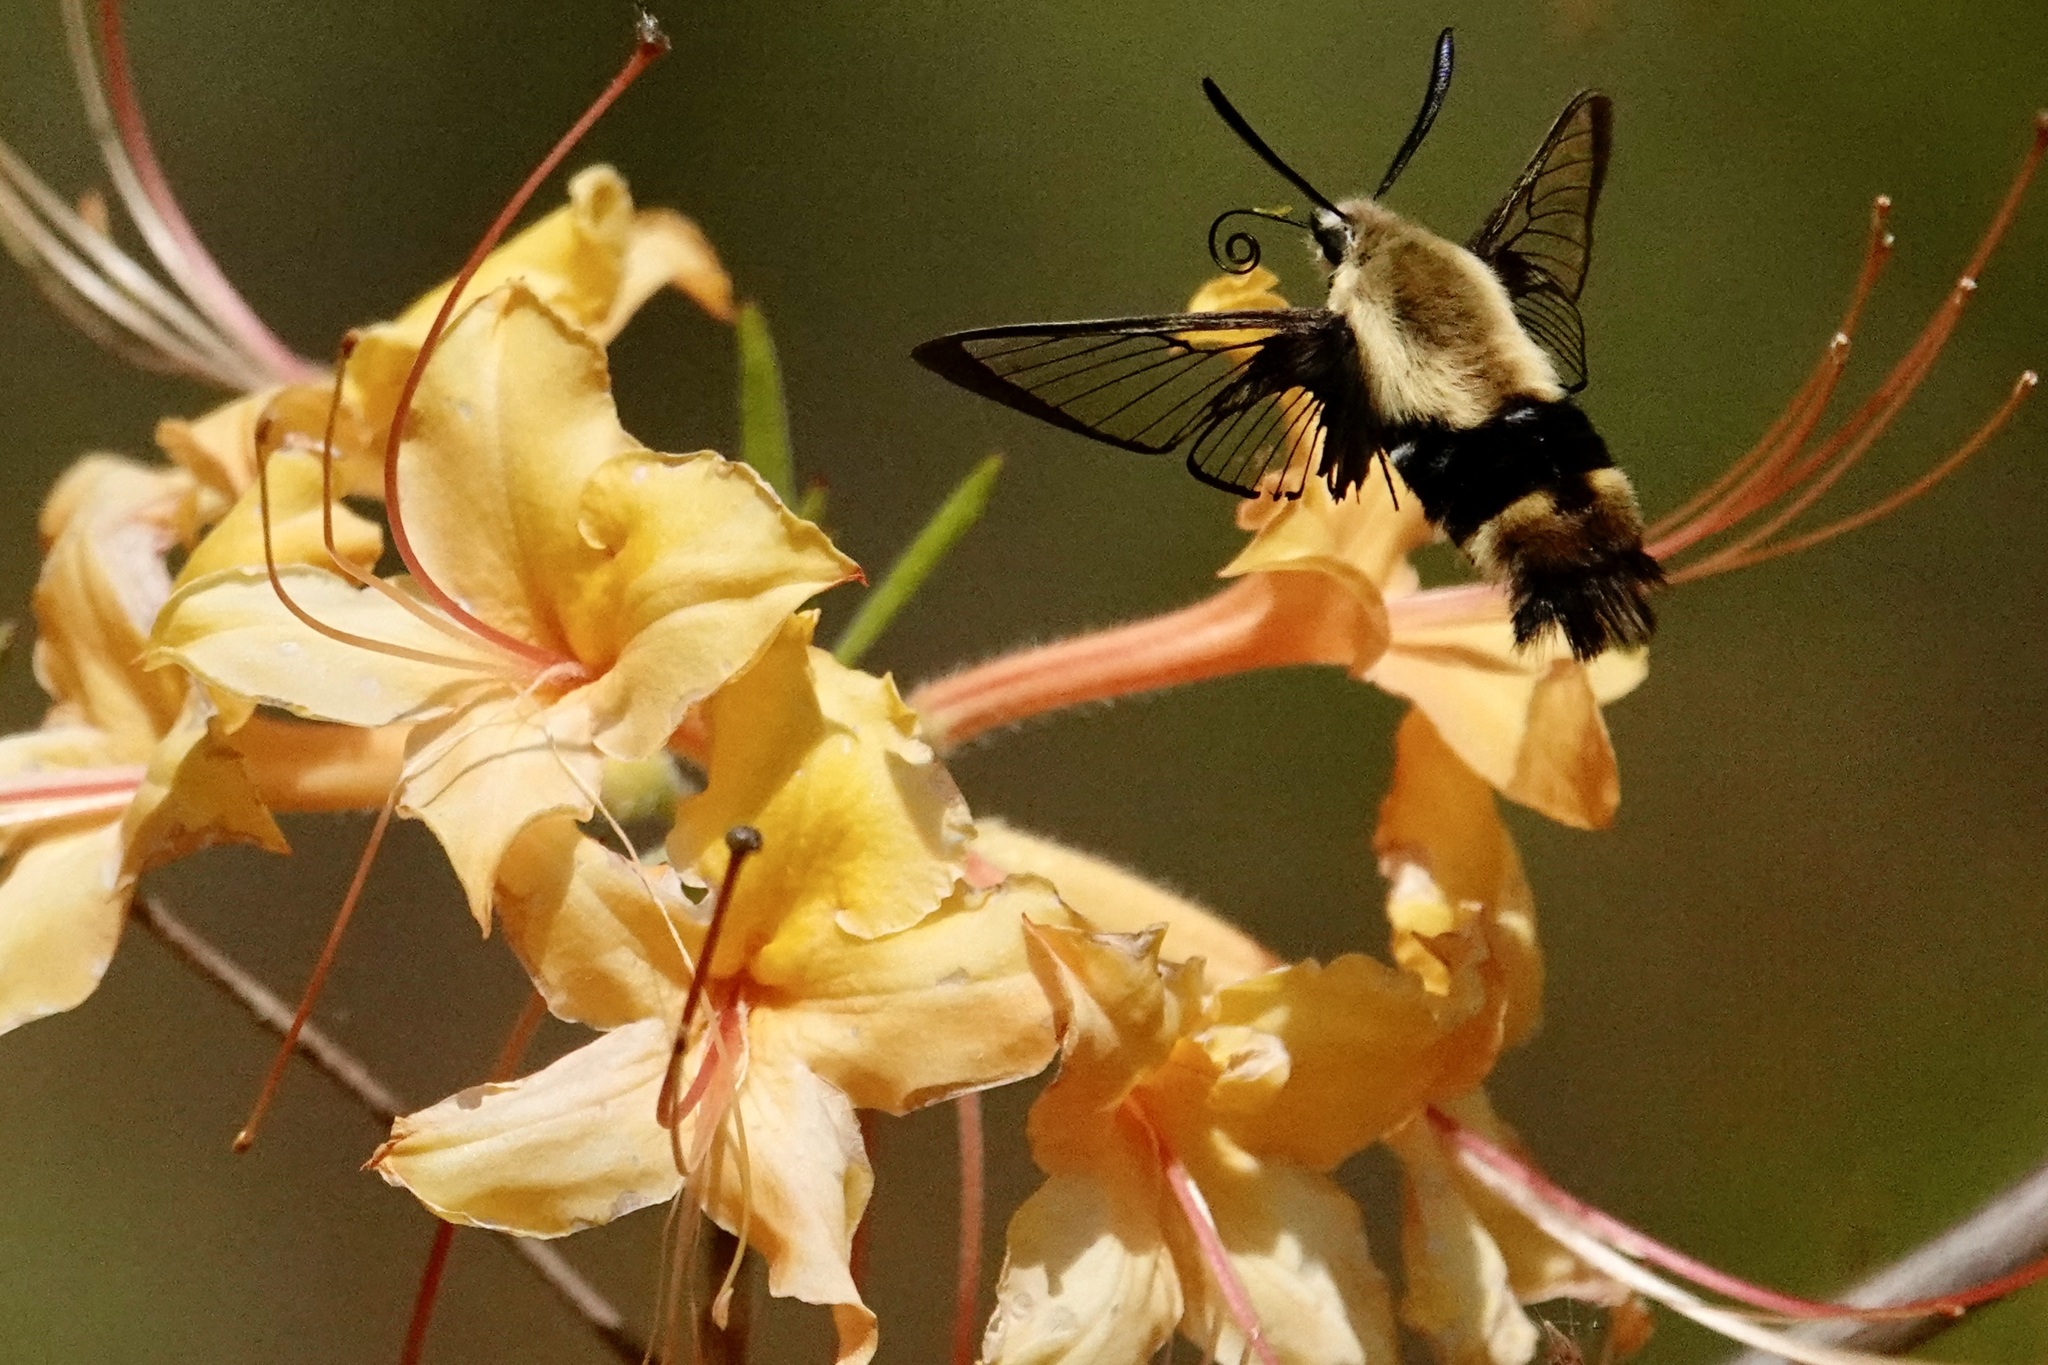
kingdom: Animalia
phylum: Arthropoda
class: Insecta
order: Lepidoptera
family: Sphingidae
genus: Hemaris
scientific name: Hemaris diffinis
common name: Bumblebee moth
